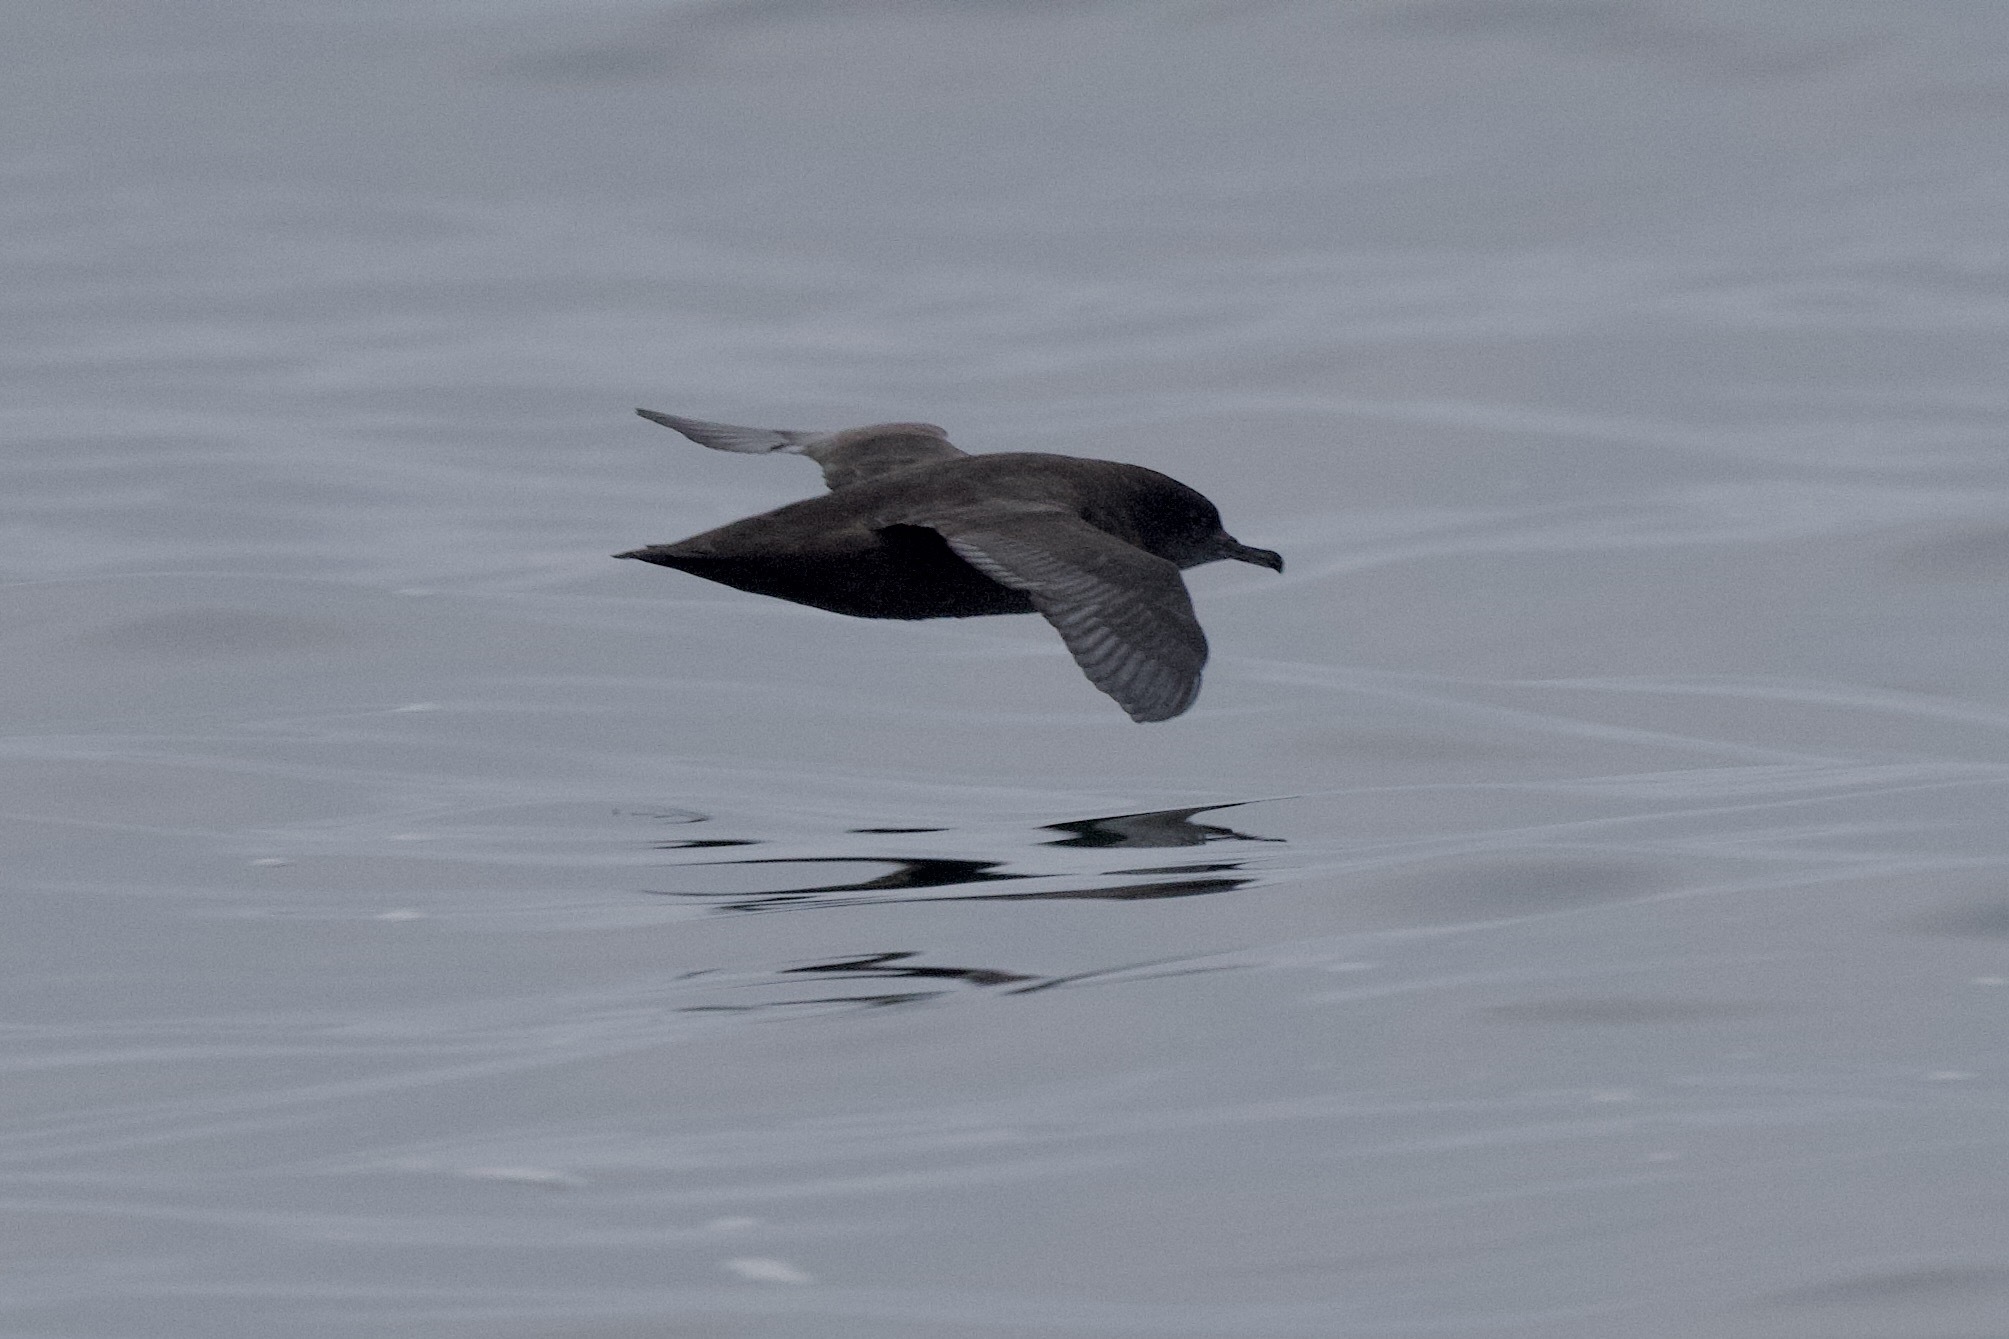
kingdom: Animalia
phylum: Chordata
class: Aves
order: Procellariiformes
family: Procellariidae
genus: Puffinus
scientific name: Puffinus griseus
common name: Sooty shearwater
